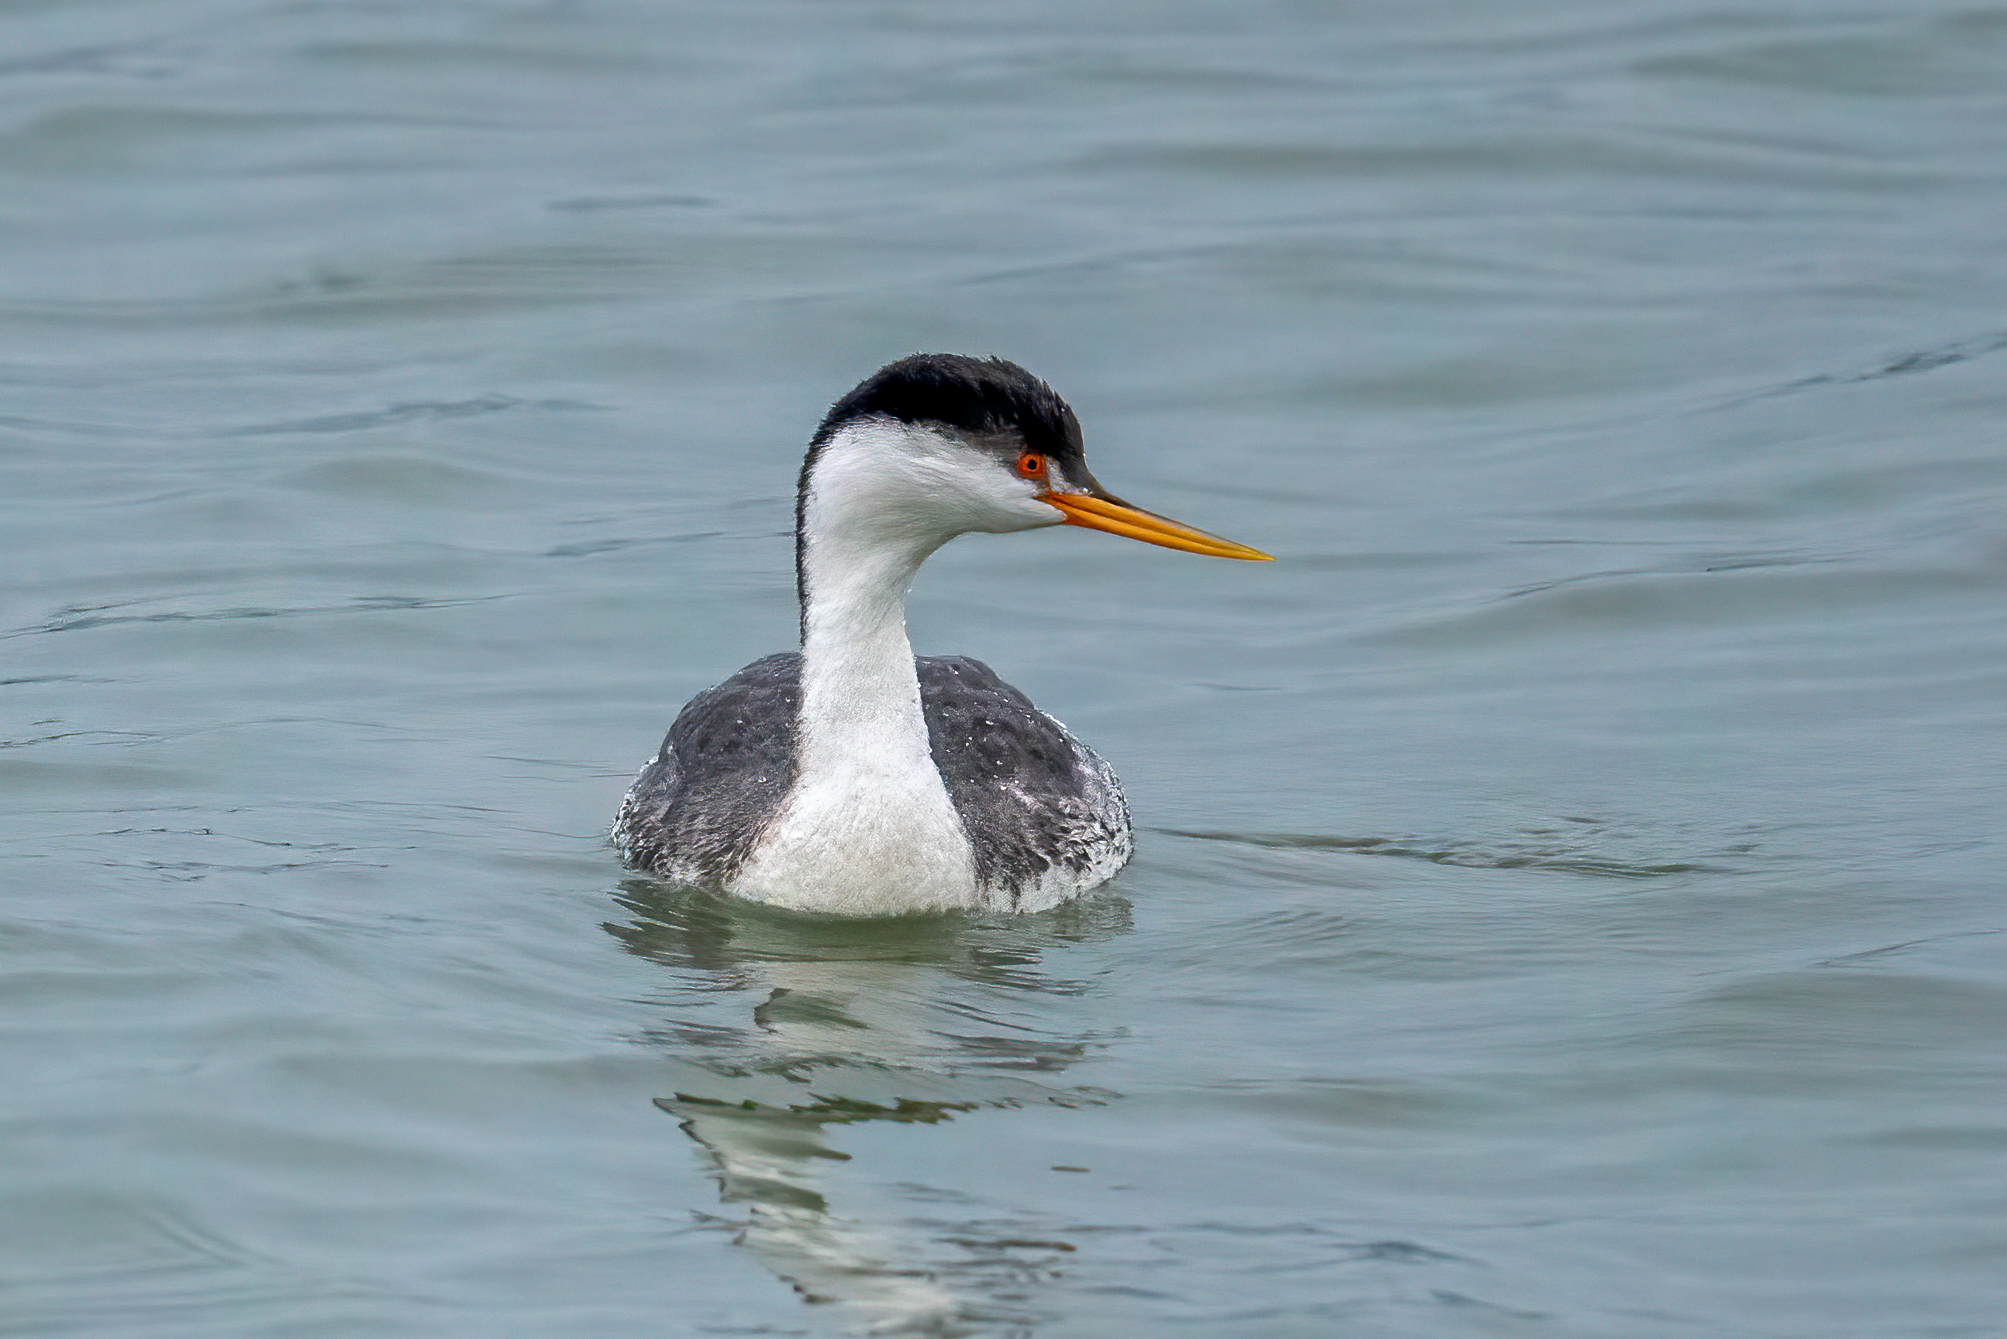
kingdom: Animalia
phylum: Chordata
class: Aves
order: Podicipediformes
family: Podicipedidae
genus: Aechmophorus
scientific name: Aechmophorus clarkii
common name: Clark's grebe
